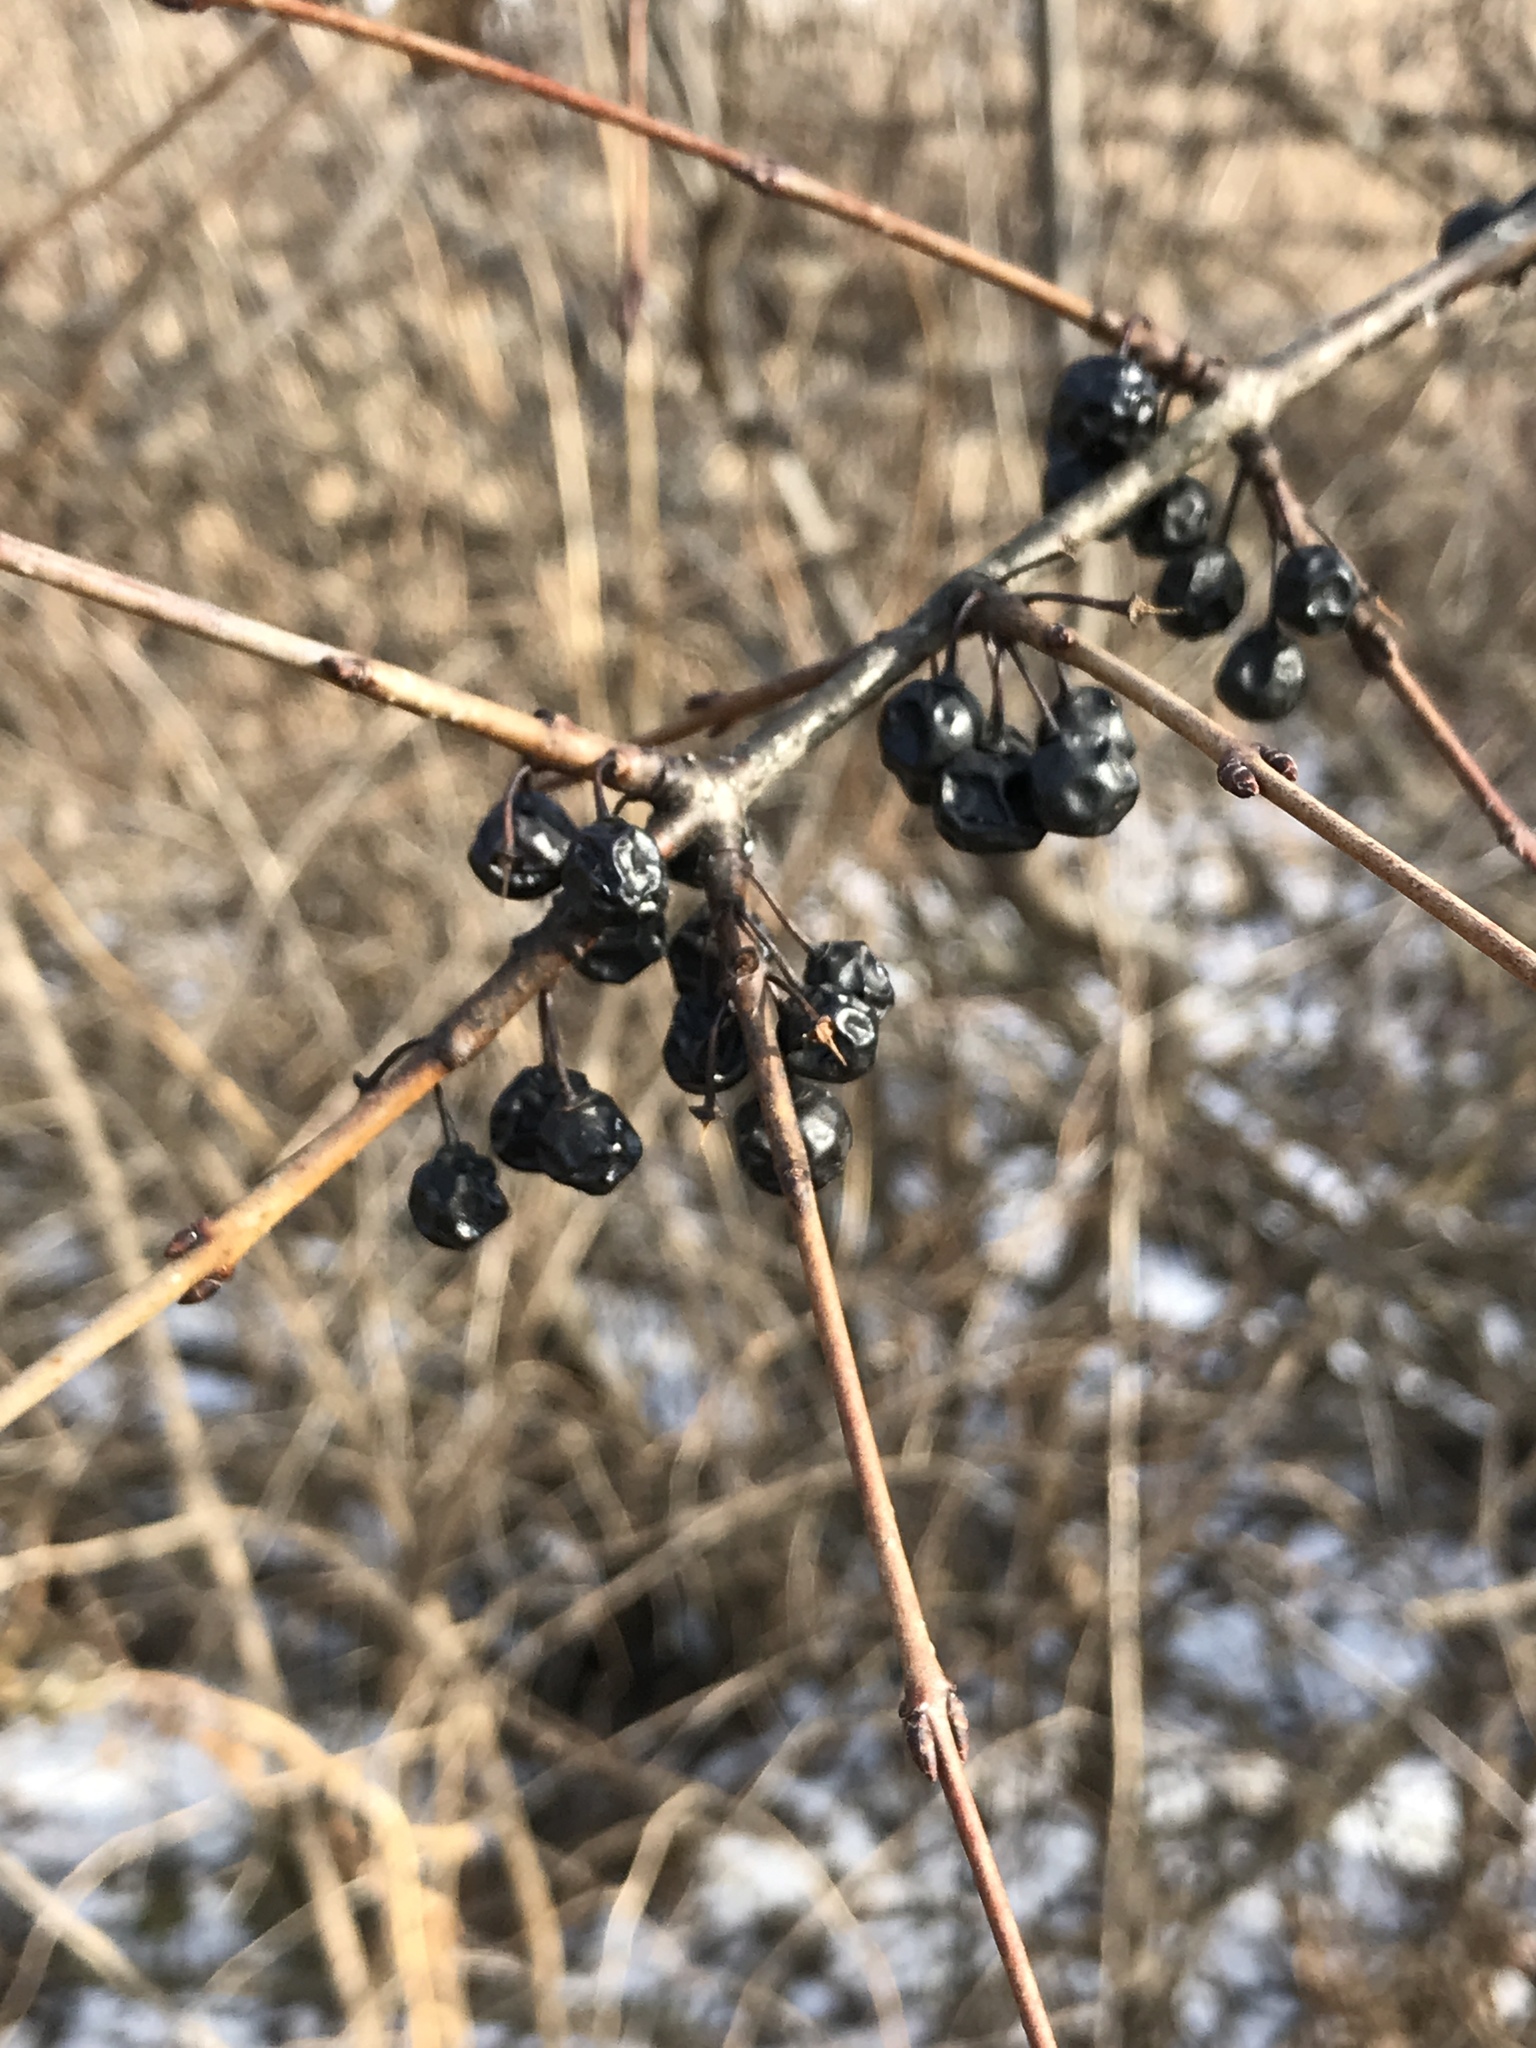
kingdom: Plantae
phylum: Tracheophyta
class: Magnoliopsida
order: Rosales
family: Rhamnaceae
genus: Rhamnus
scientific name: Rhamnus cathartica
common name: Common buckthorn
